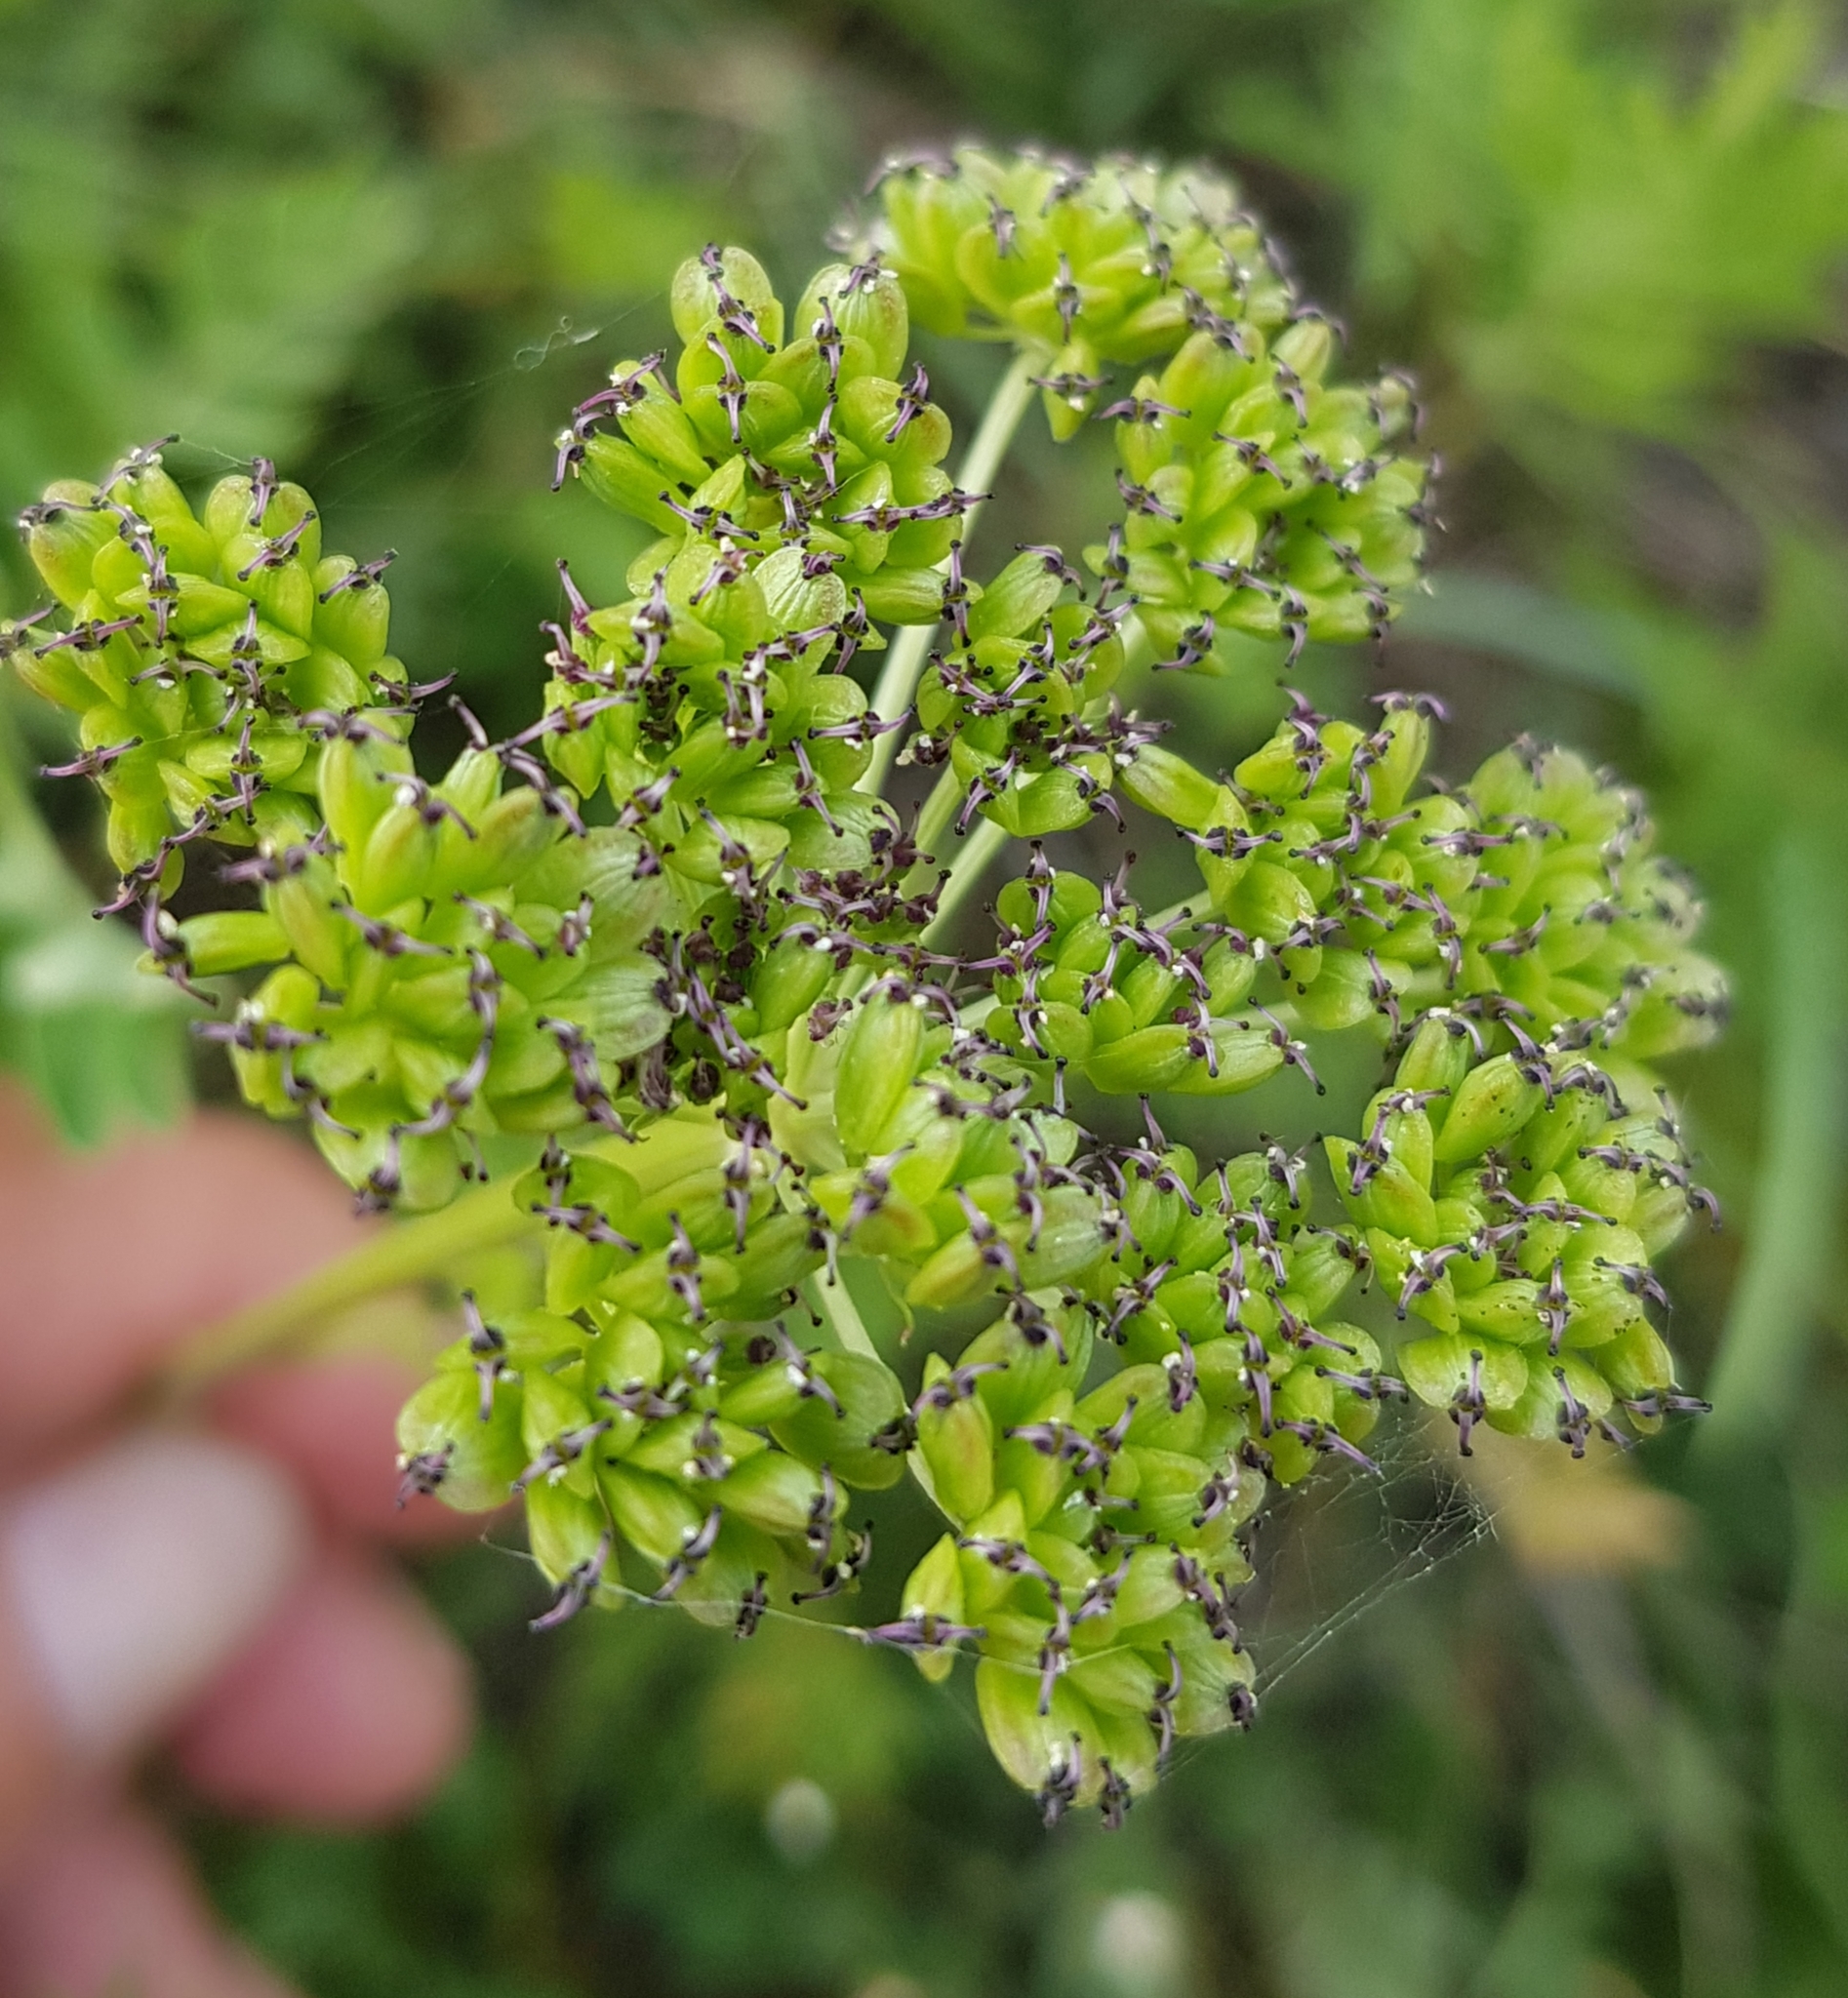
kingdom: Plantae
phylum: Tracheophyta
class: Magnoliopsida
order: Apiales
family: Apiaceae
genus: Cenolophium
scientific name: Cenolophium fischeri
